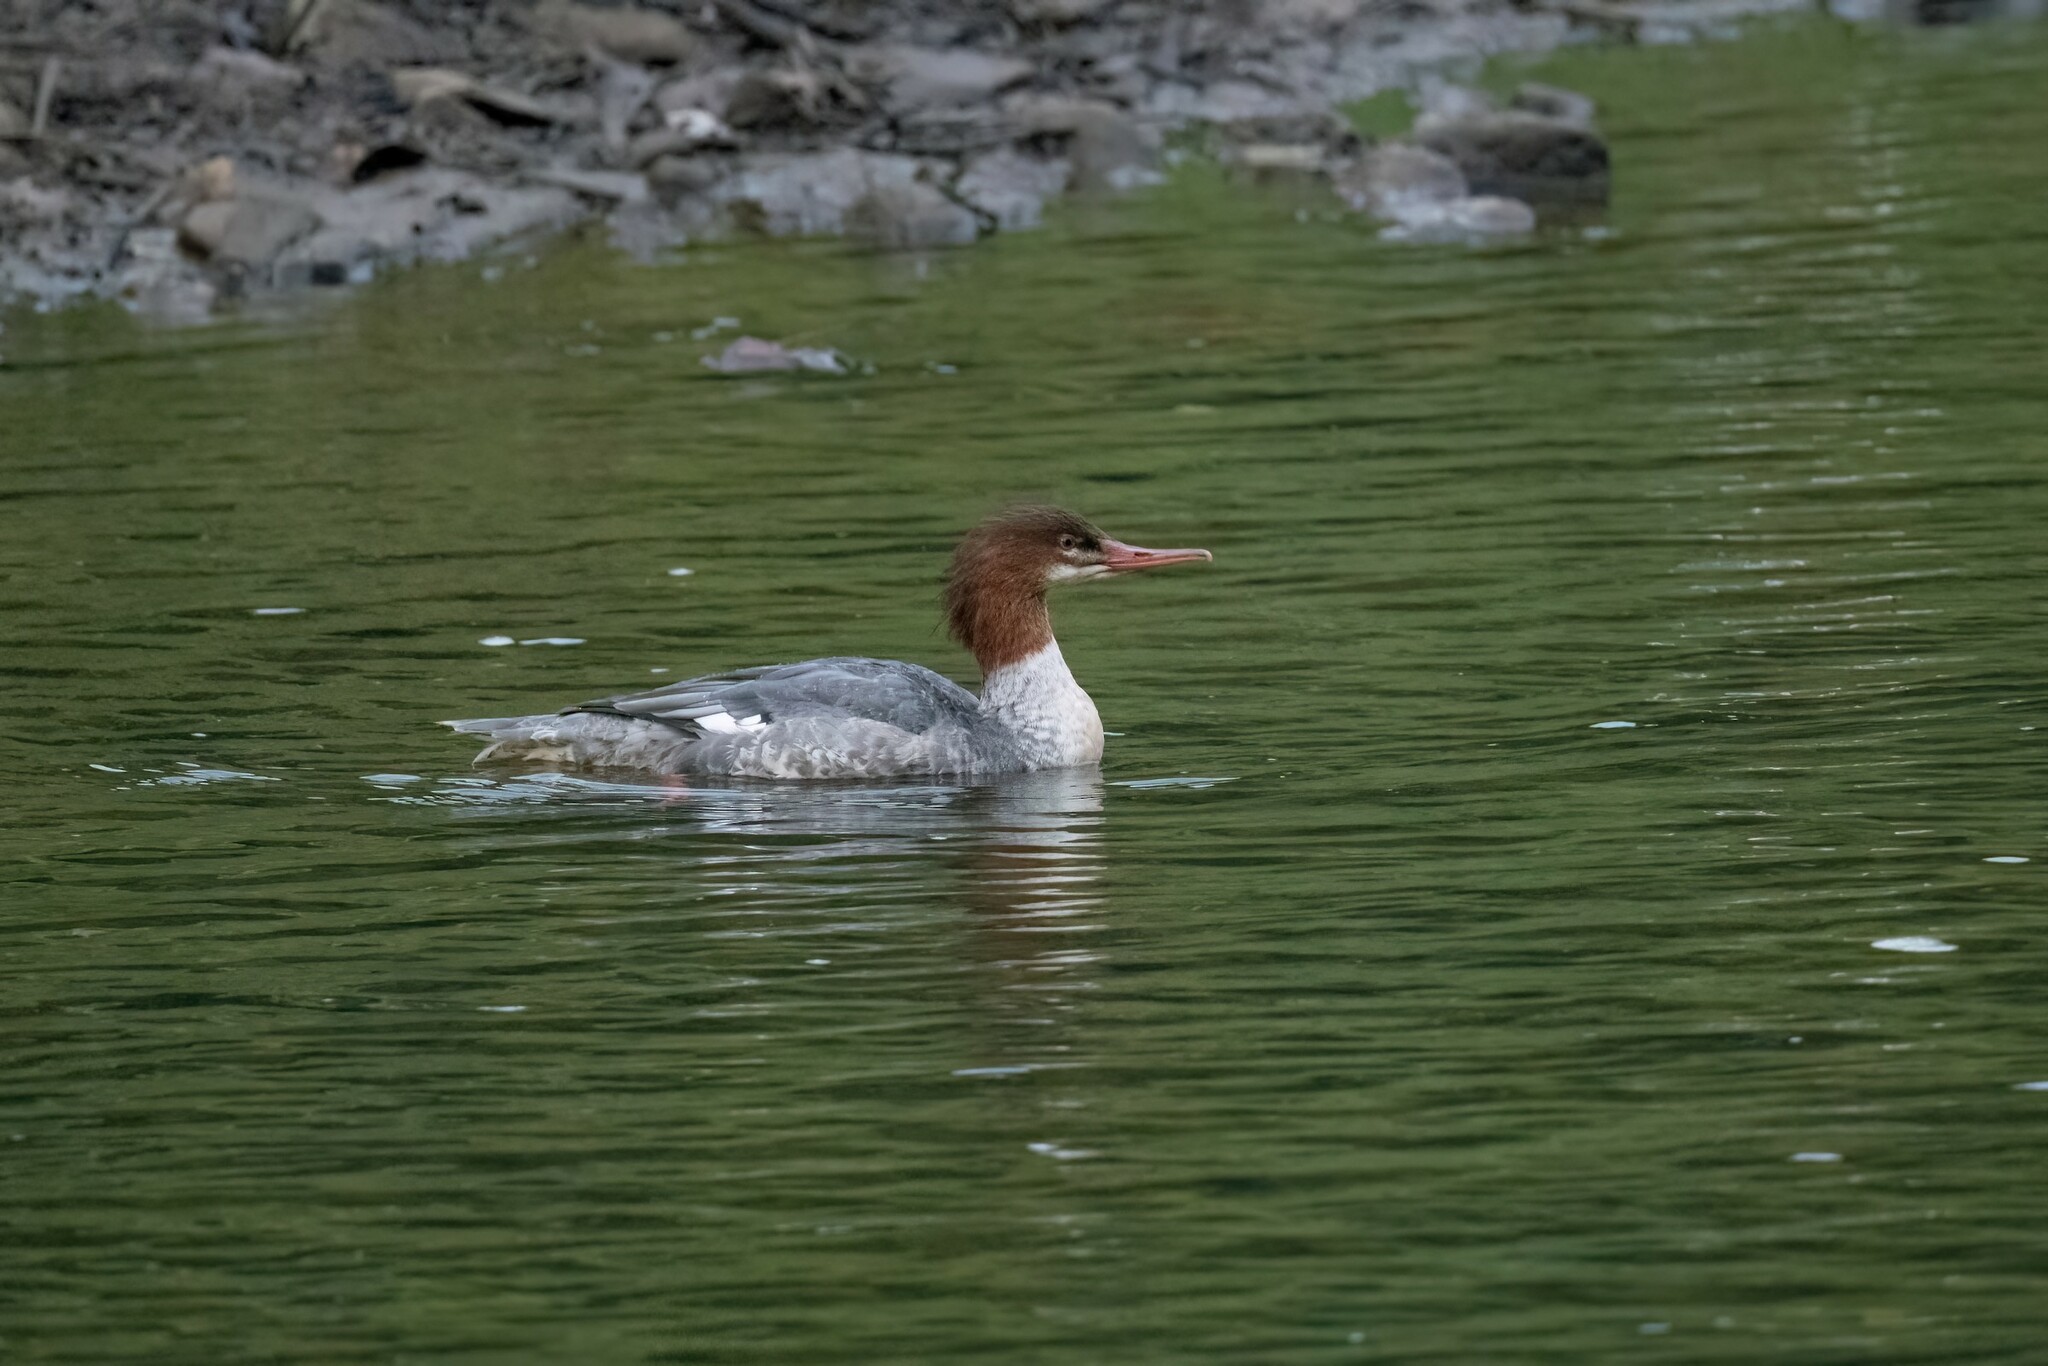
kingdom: Animalia
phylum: Chordata
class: Aves
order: Anseriformes
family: Anatidae
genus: Mergus
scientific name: Mergus merganser
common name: Common merganser
